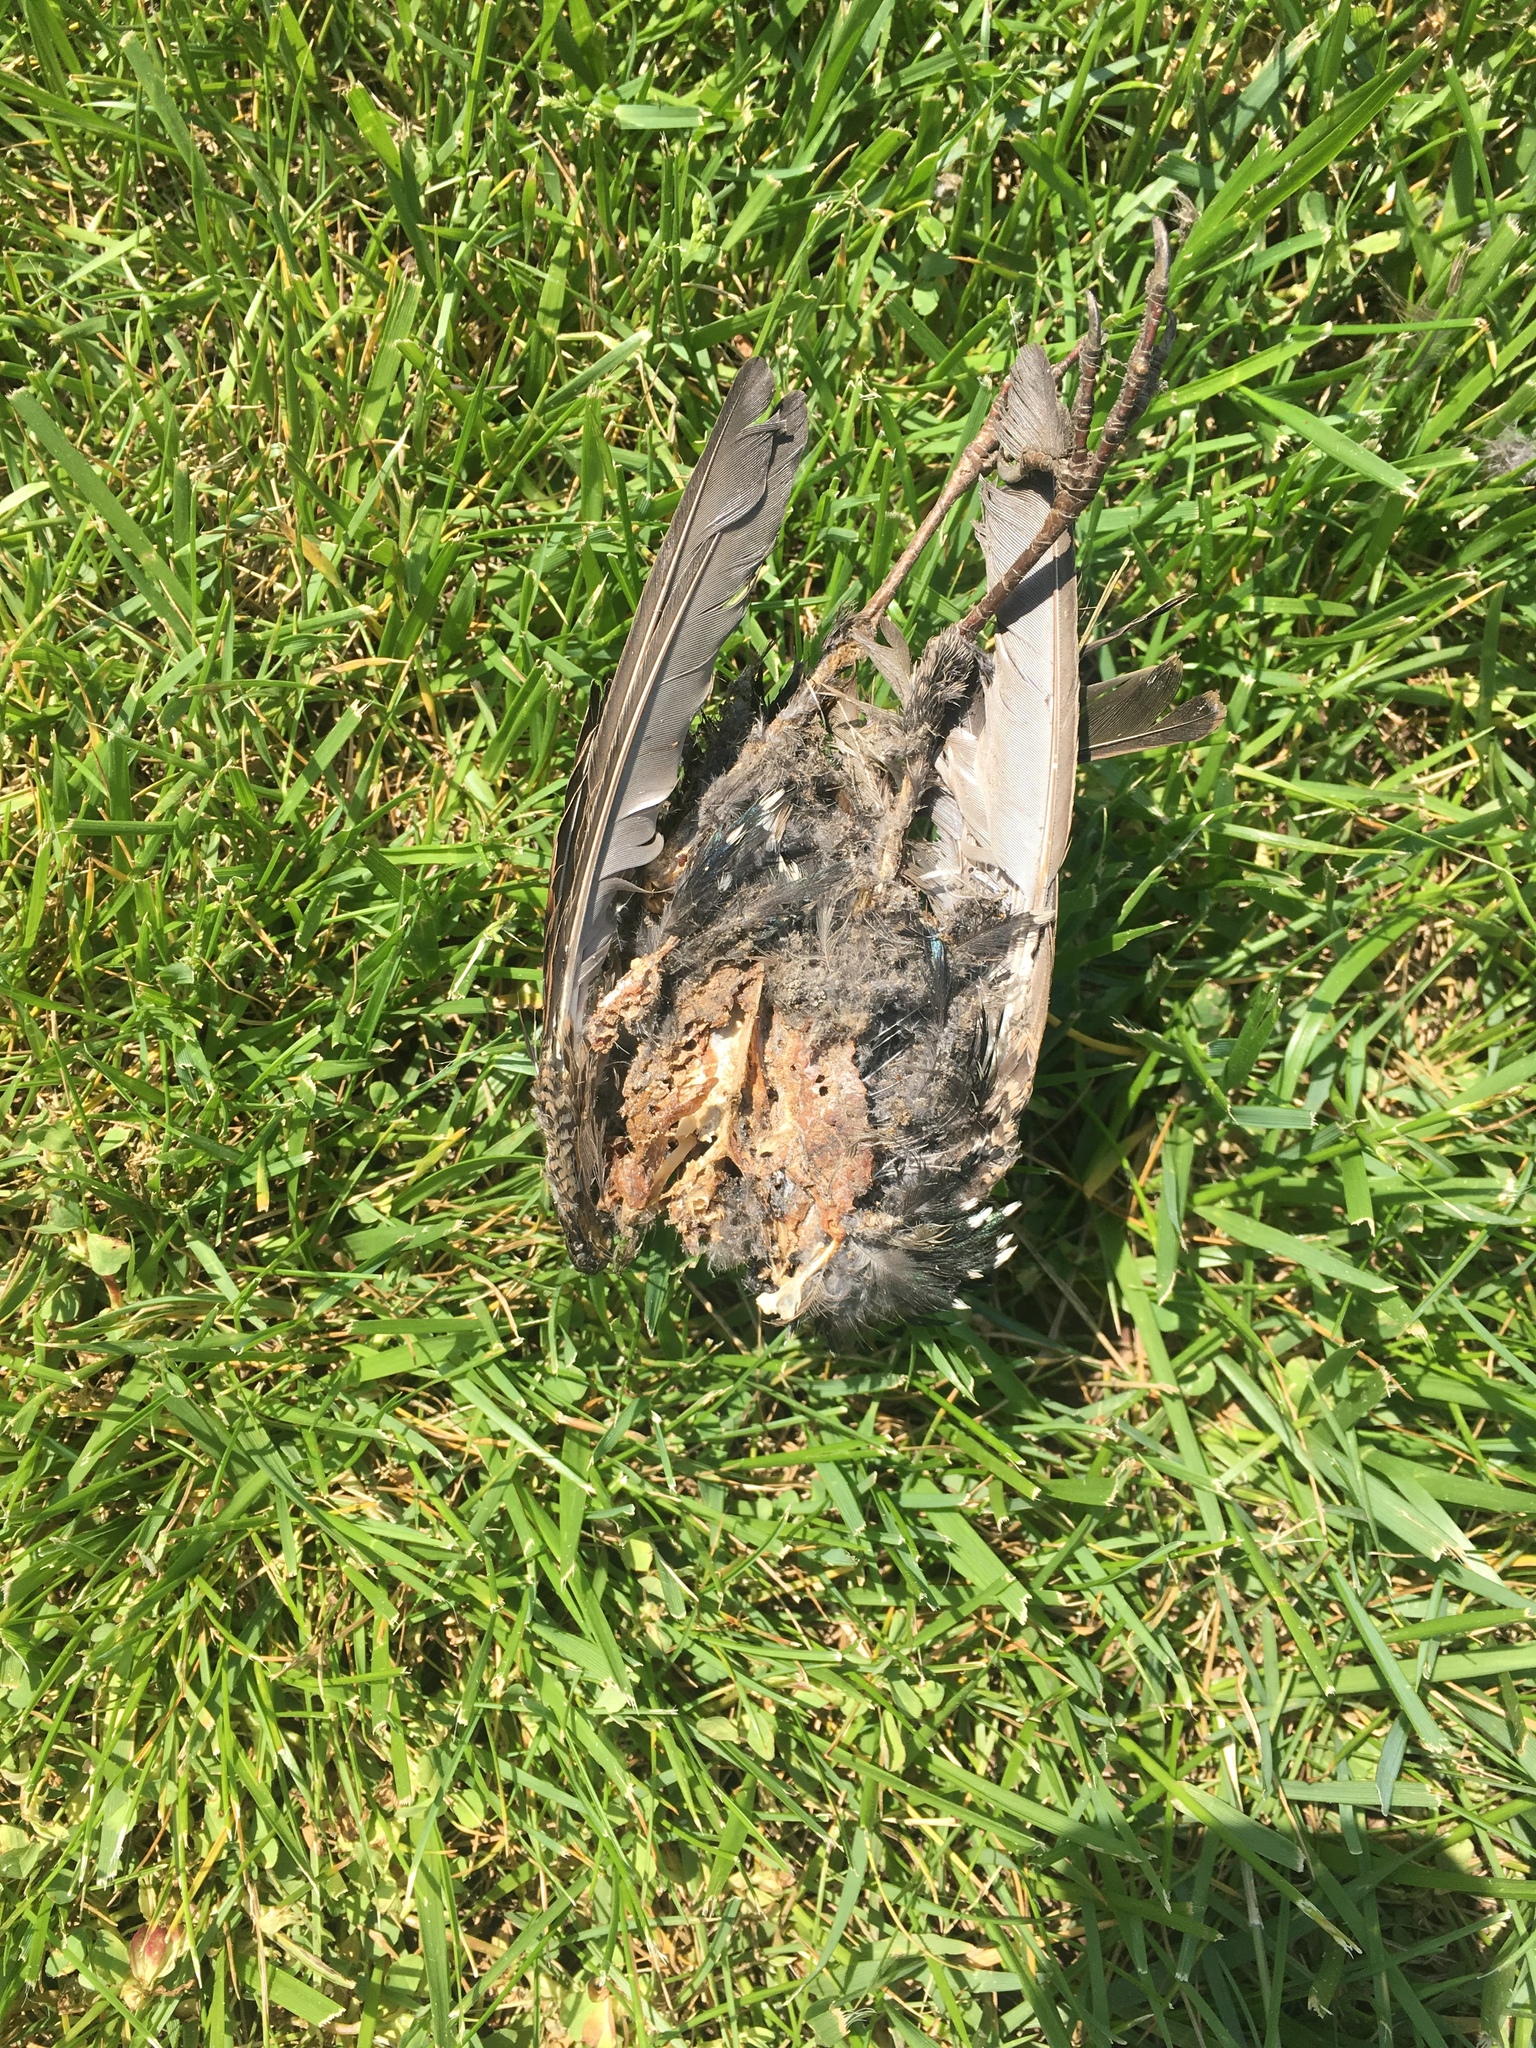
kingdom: Animalia
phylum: Chordata
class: Aves
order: Passeriformes
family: Sturnidae
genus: Sturnus
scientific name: Sturnus vulgaris
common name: Common starling
